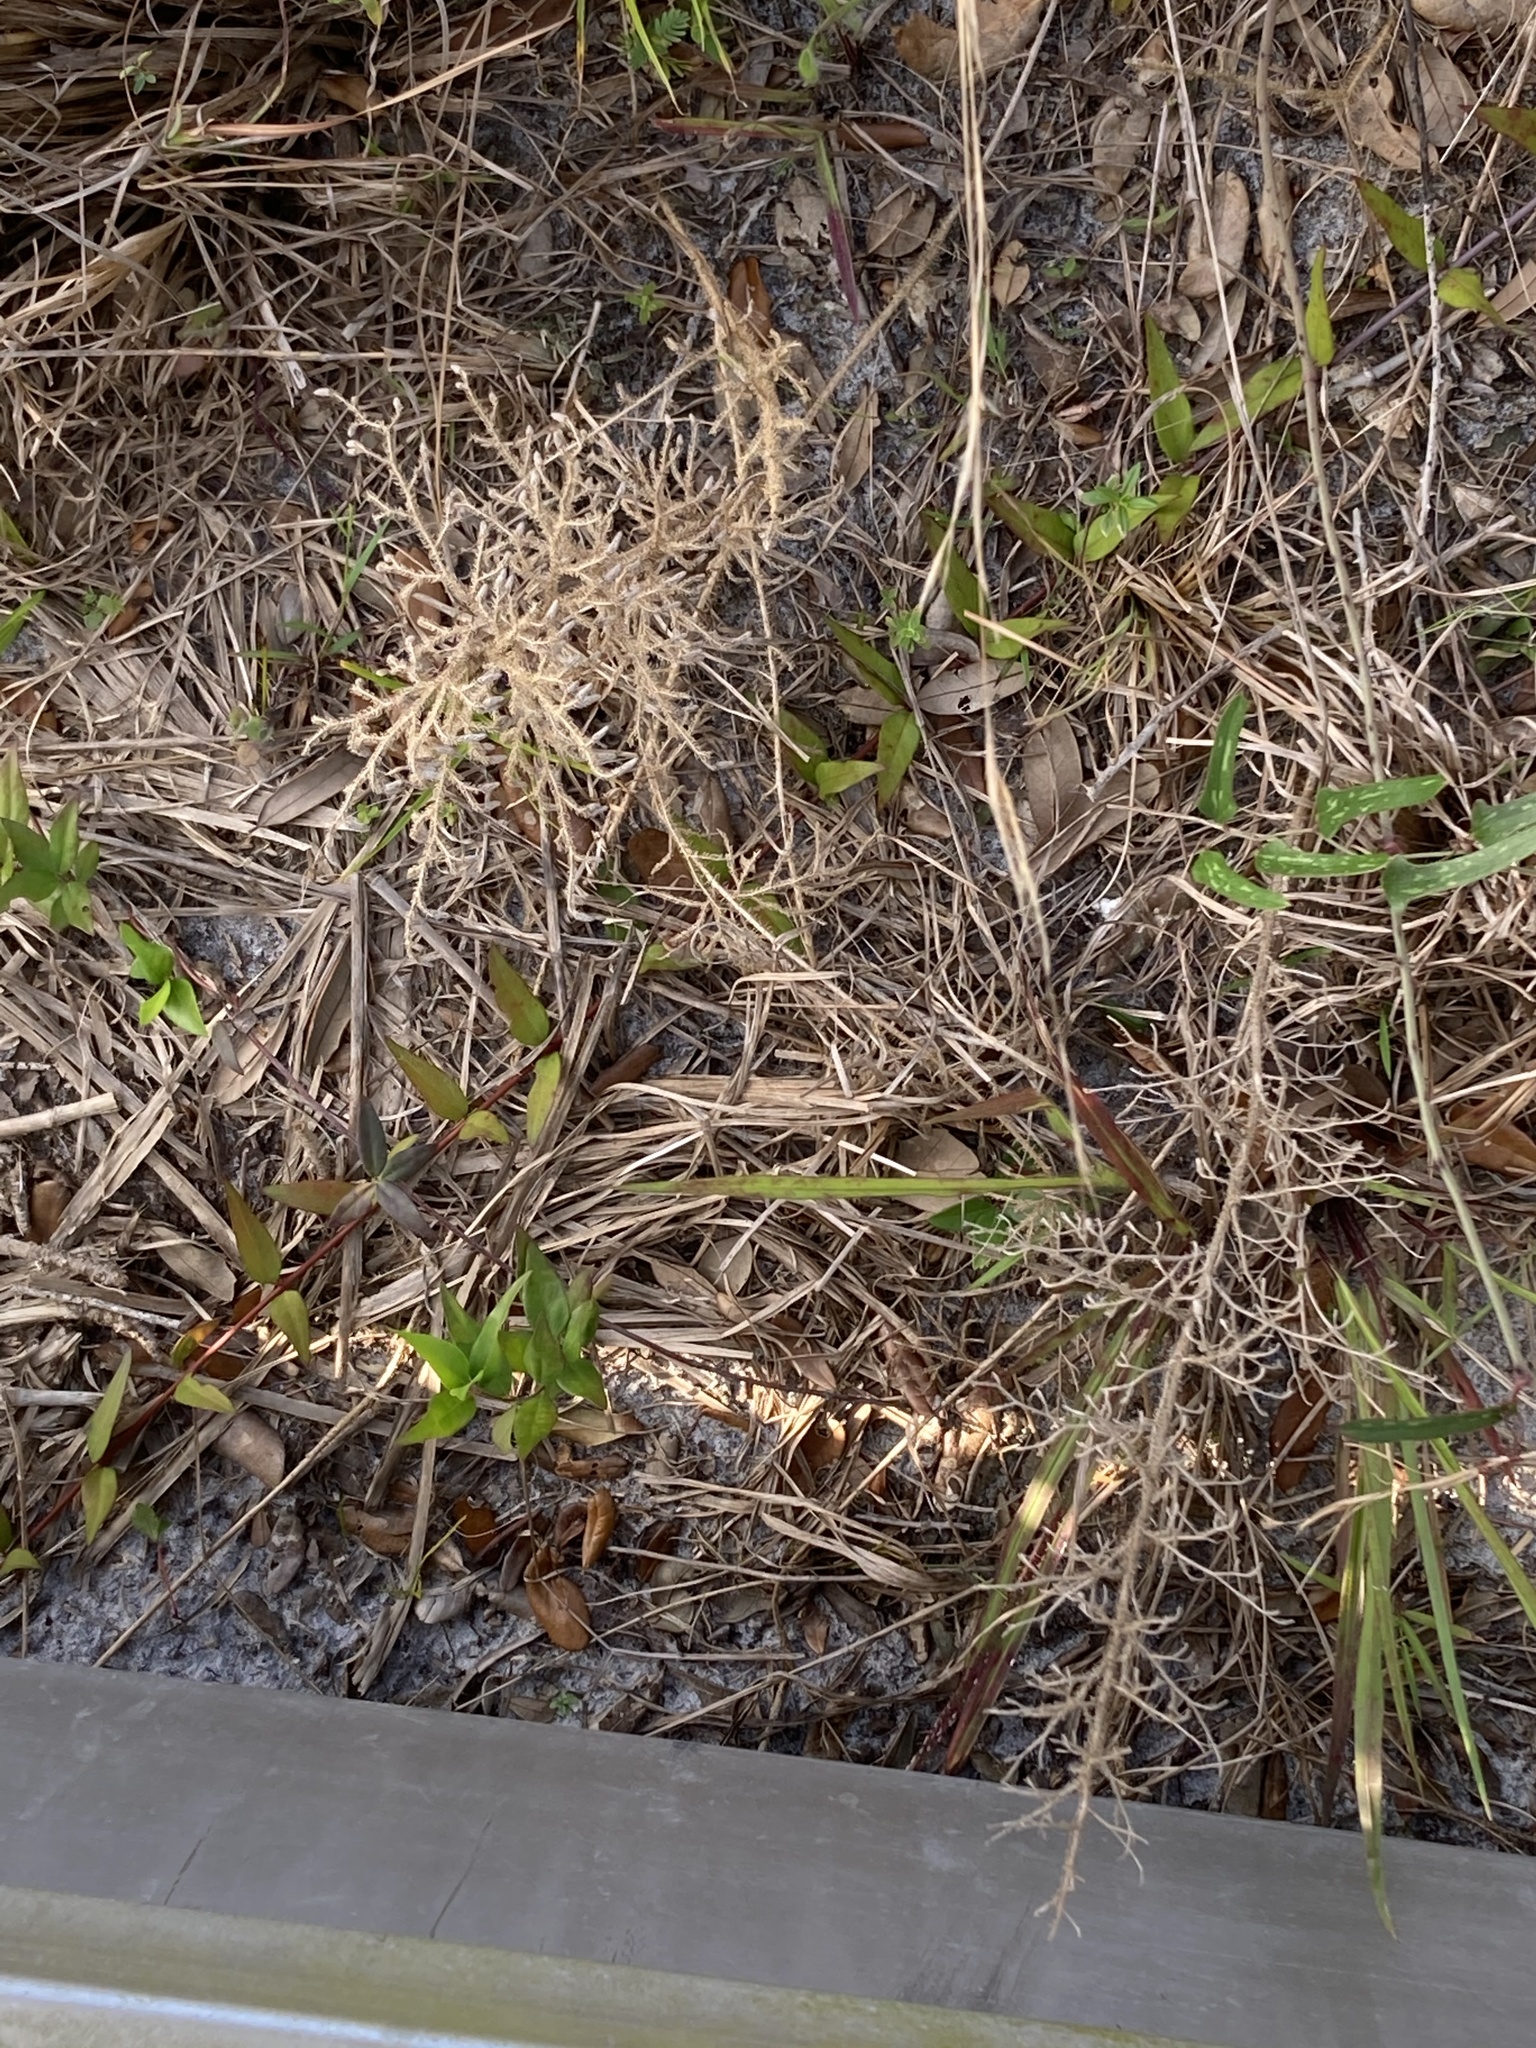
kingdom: Plantae
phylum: Tracheophyta
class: Lycopodiopsida
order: Lycopodiales
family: Lycopodiaceae
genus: Palhinhaea
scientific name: Palhinhaea cernua
